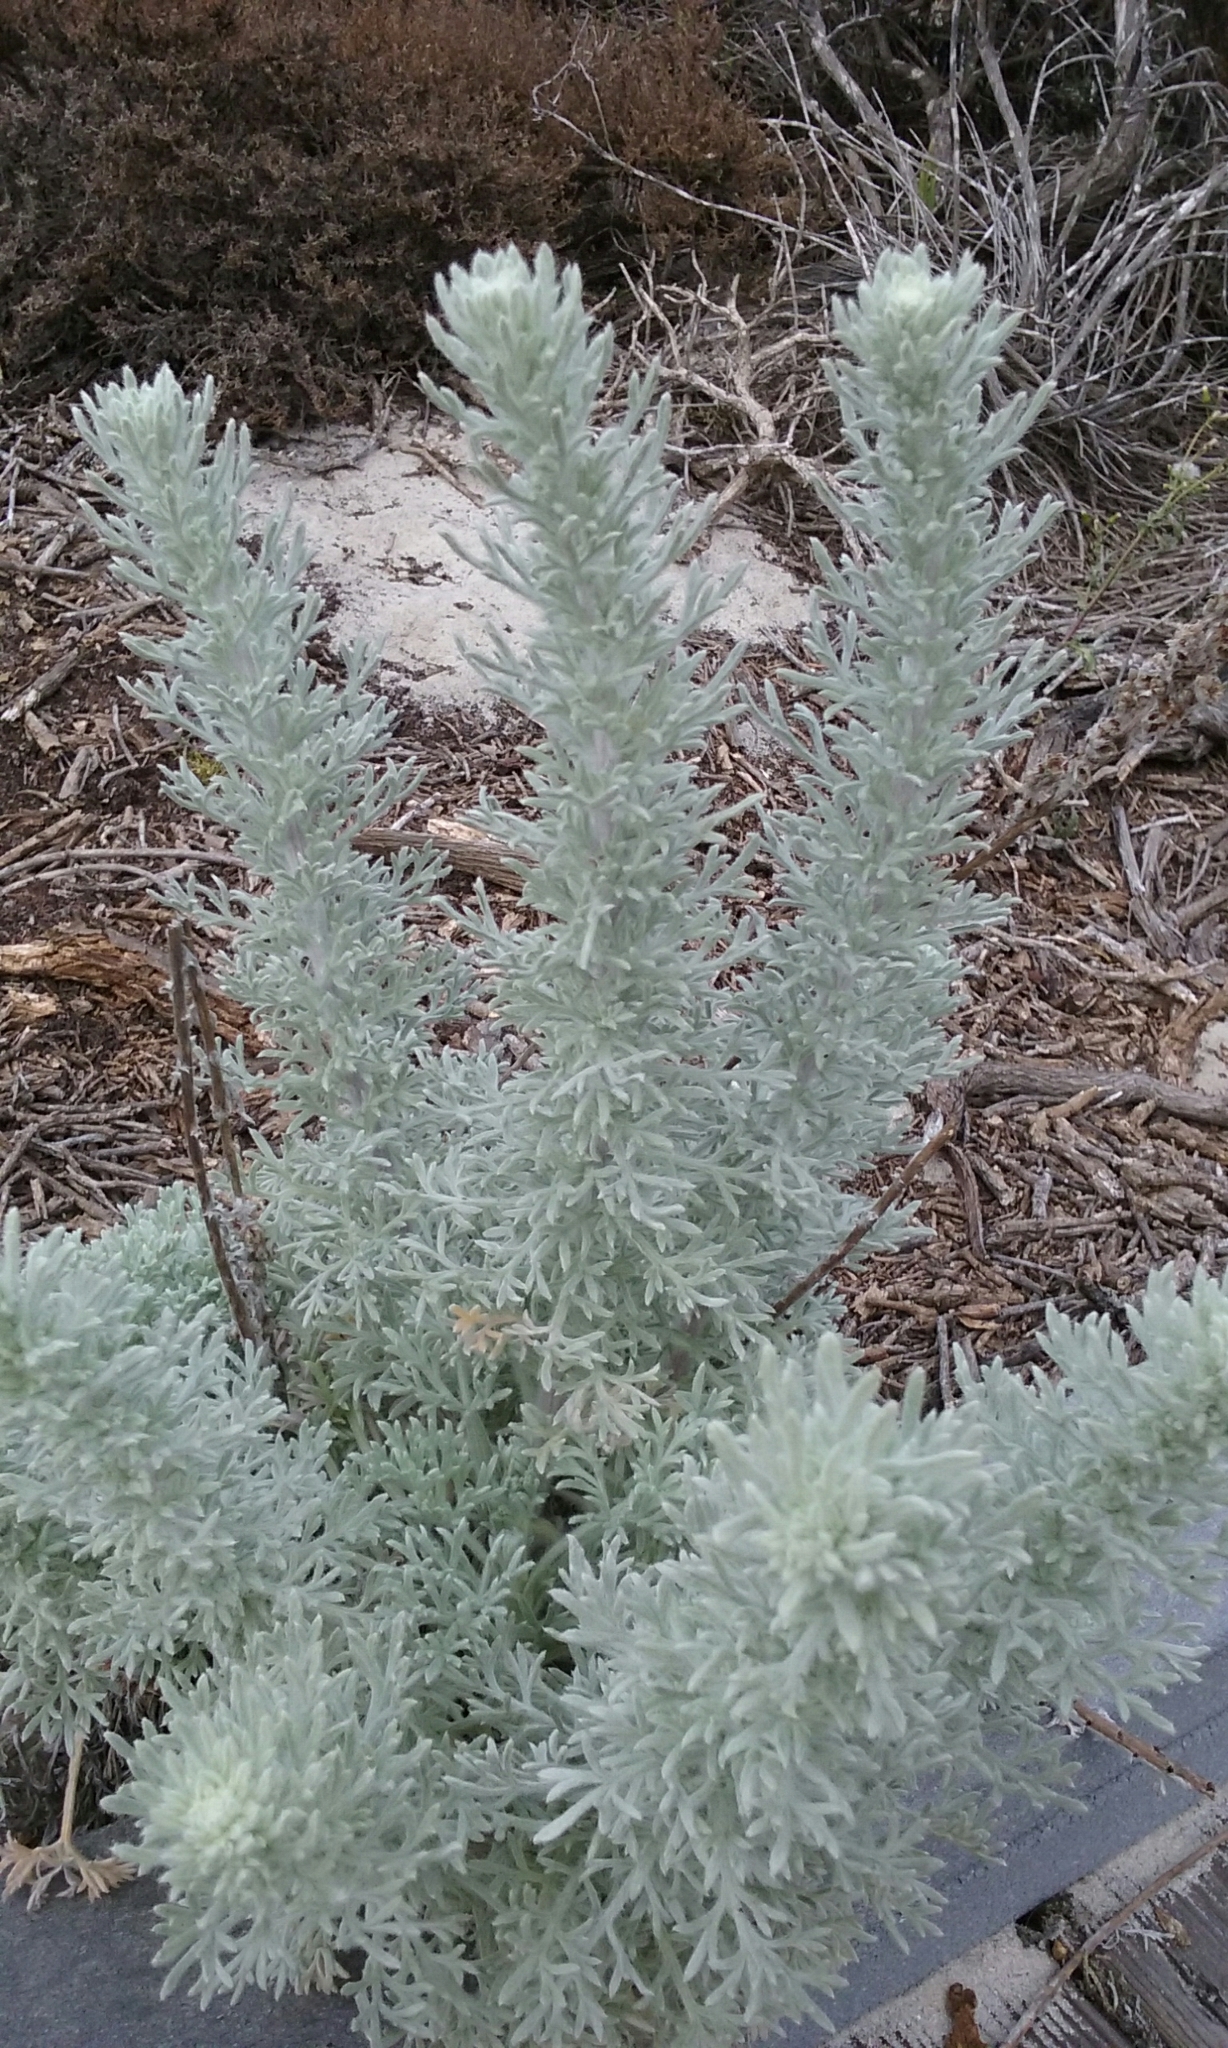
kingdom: Plantae
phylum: Tracheophyta
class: Magnoliopsida
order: Asterales
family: Asteraceae
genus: Artemisia
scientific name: Artemisia pycnocephala
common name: Coastal sagewort
